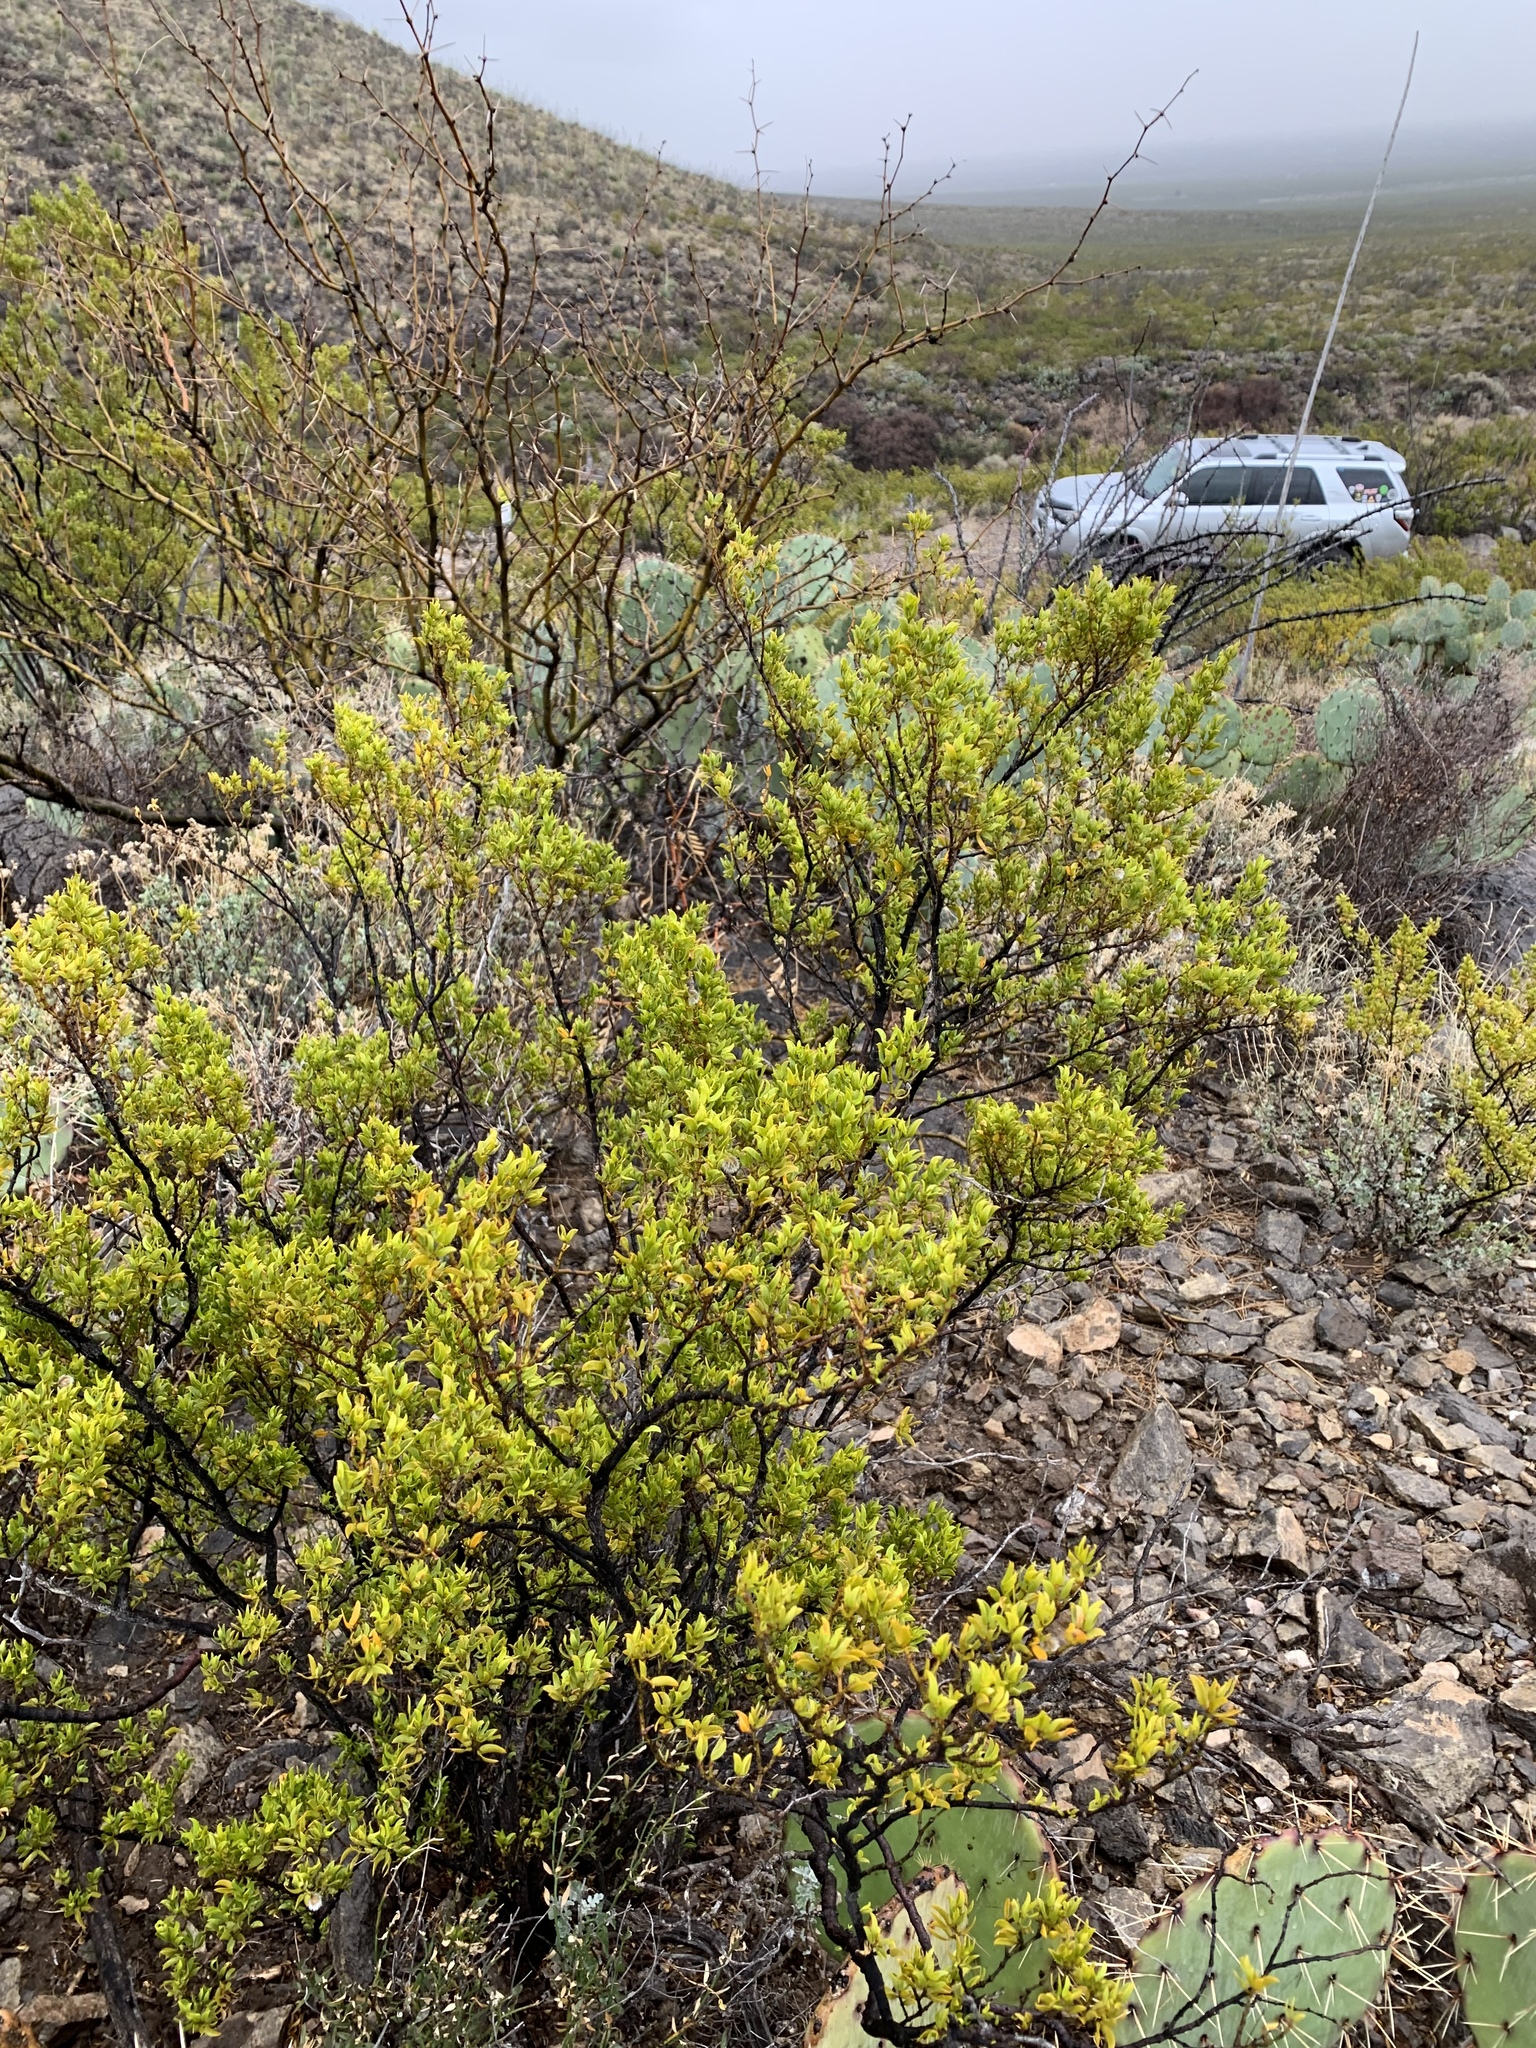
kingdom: Plantae
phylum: Tracheophyta
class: Magnoliopsida
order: Zygophyllales
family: Zygophyllaceae
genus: Larrea
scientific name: Larrea tridentata
